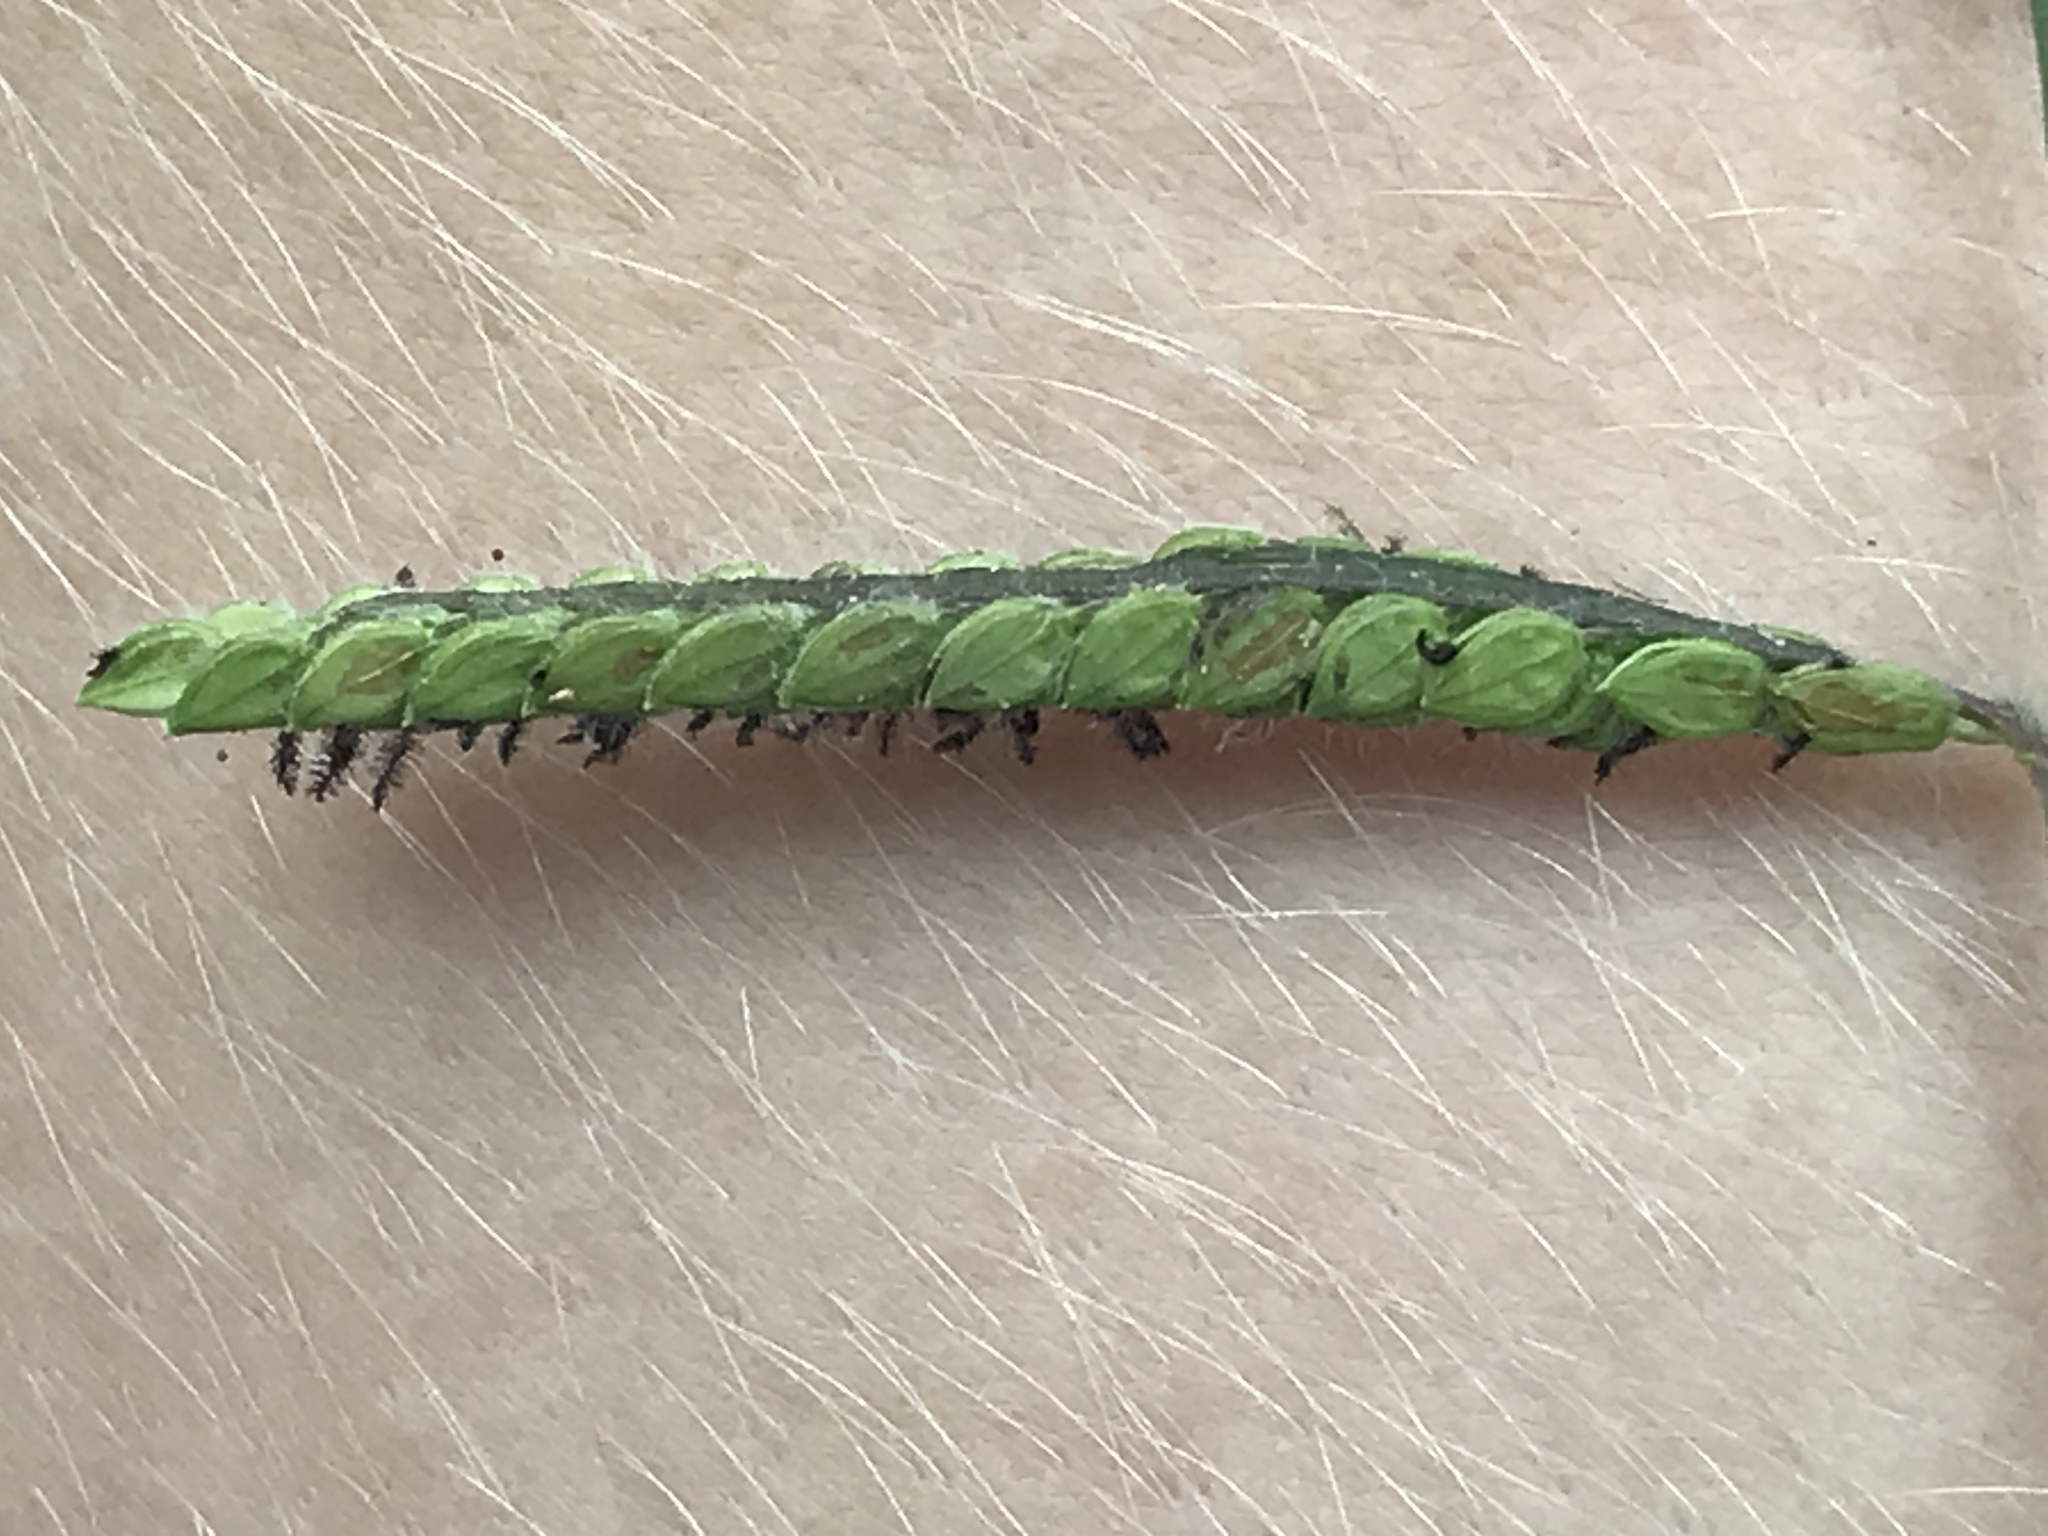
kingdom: Plantae
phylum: Tracheophyta
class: Liliopsida
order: Poales
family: Poaceae
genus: Paspalum
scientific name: Paspalum dilatatum
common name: Dallisgrass
